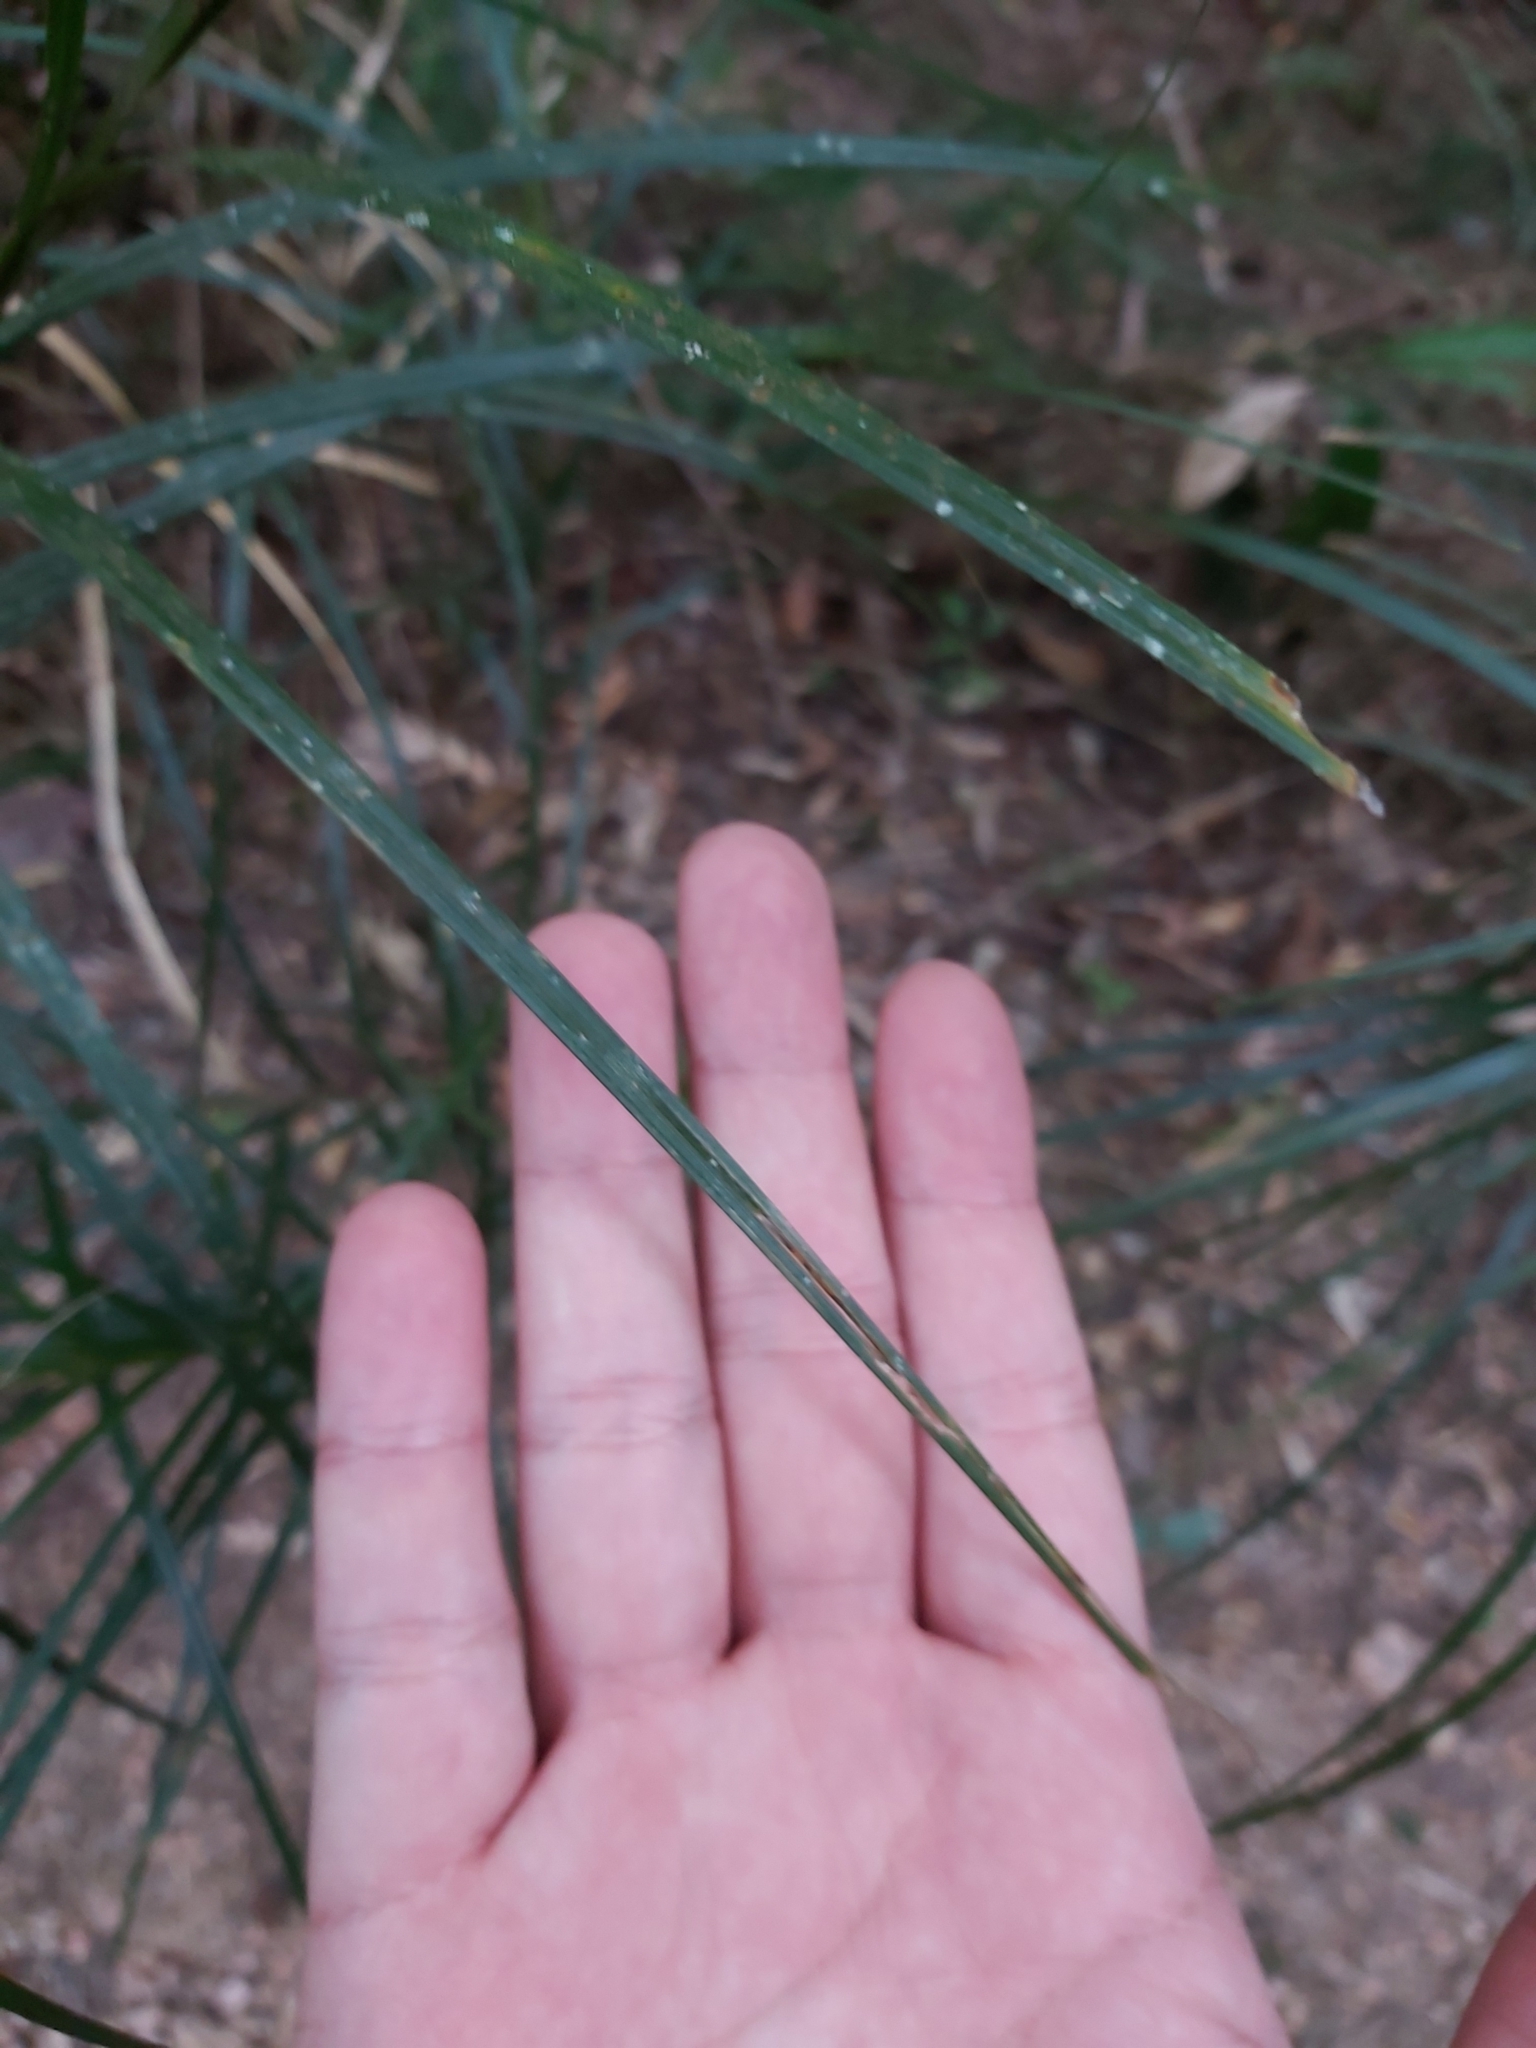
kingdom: Plantae
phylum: Tracheophyta
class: Liliopsida
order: Poales
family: Cyperaceae
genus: Exocarya
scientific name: Exocarya sclerioides
